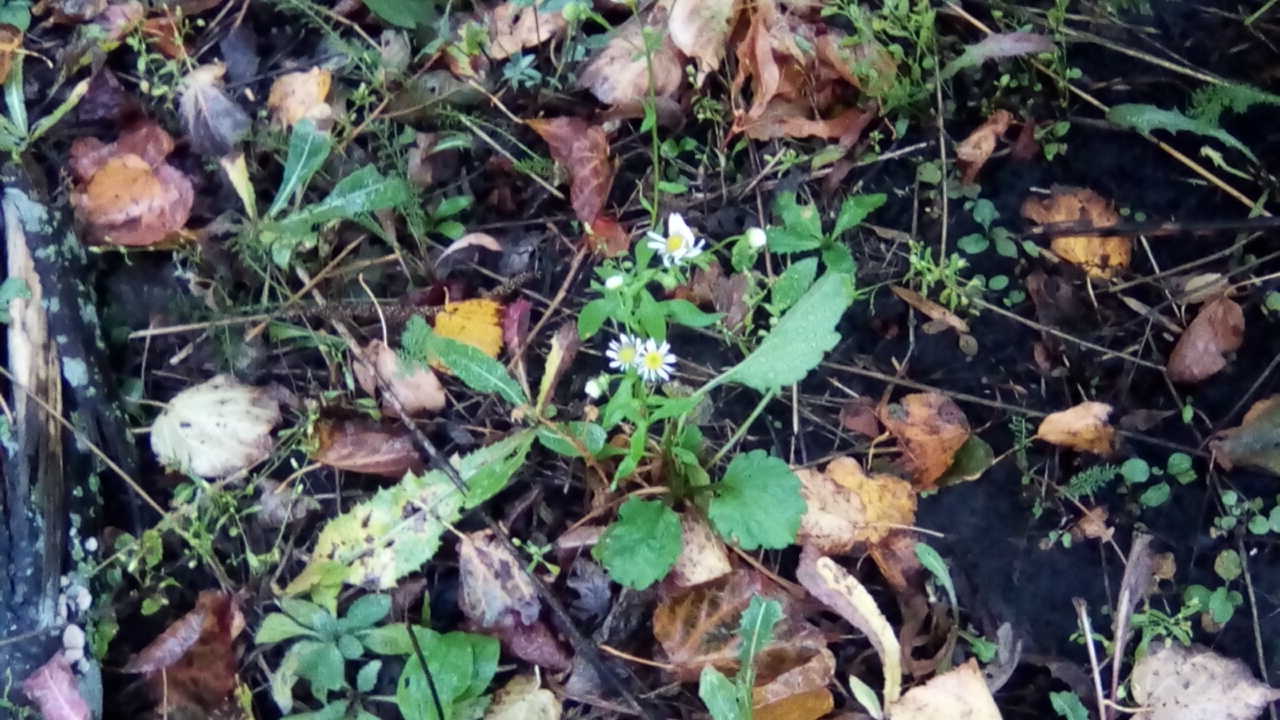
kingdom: Plantae
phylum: Tracheophyta
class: Magnoliopsida
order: Asterales
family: Asteraceae
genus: Erigeron
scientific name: Erigeron annuus
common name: Tall fleabane
